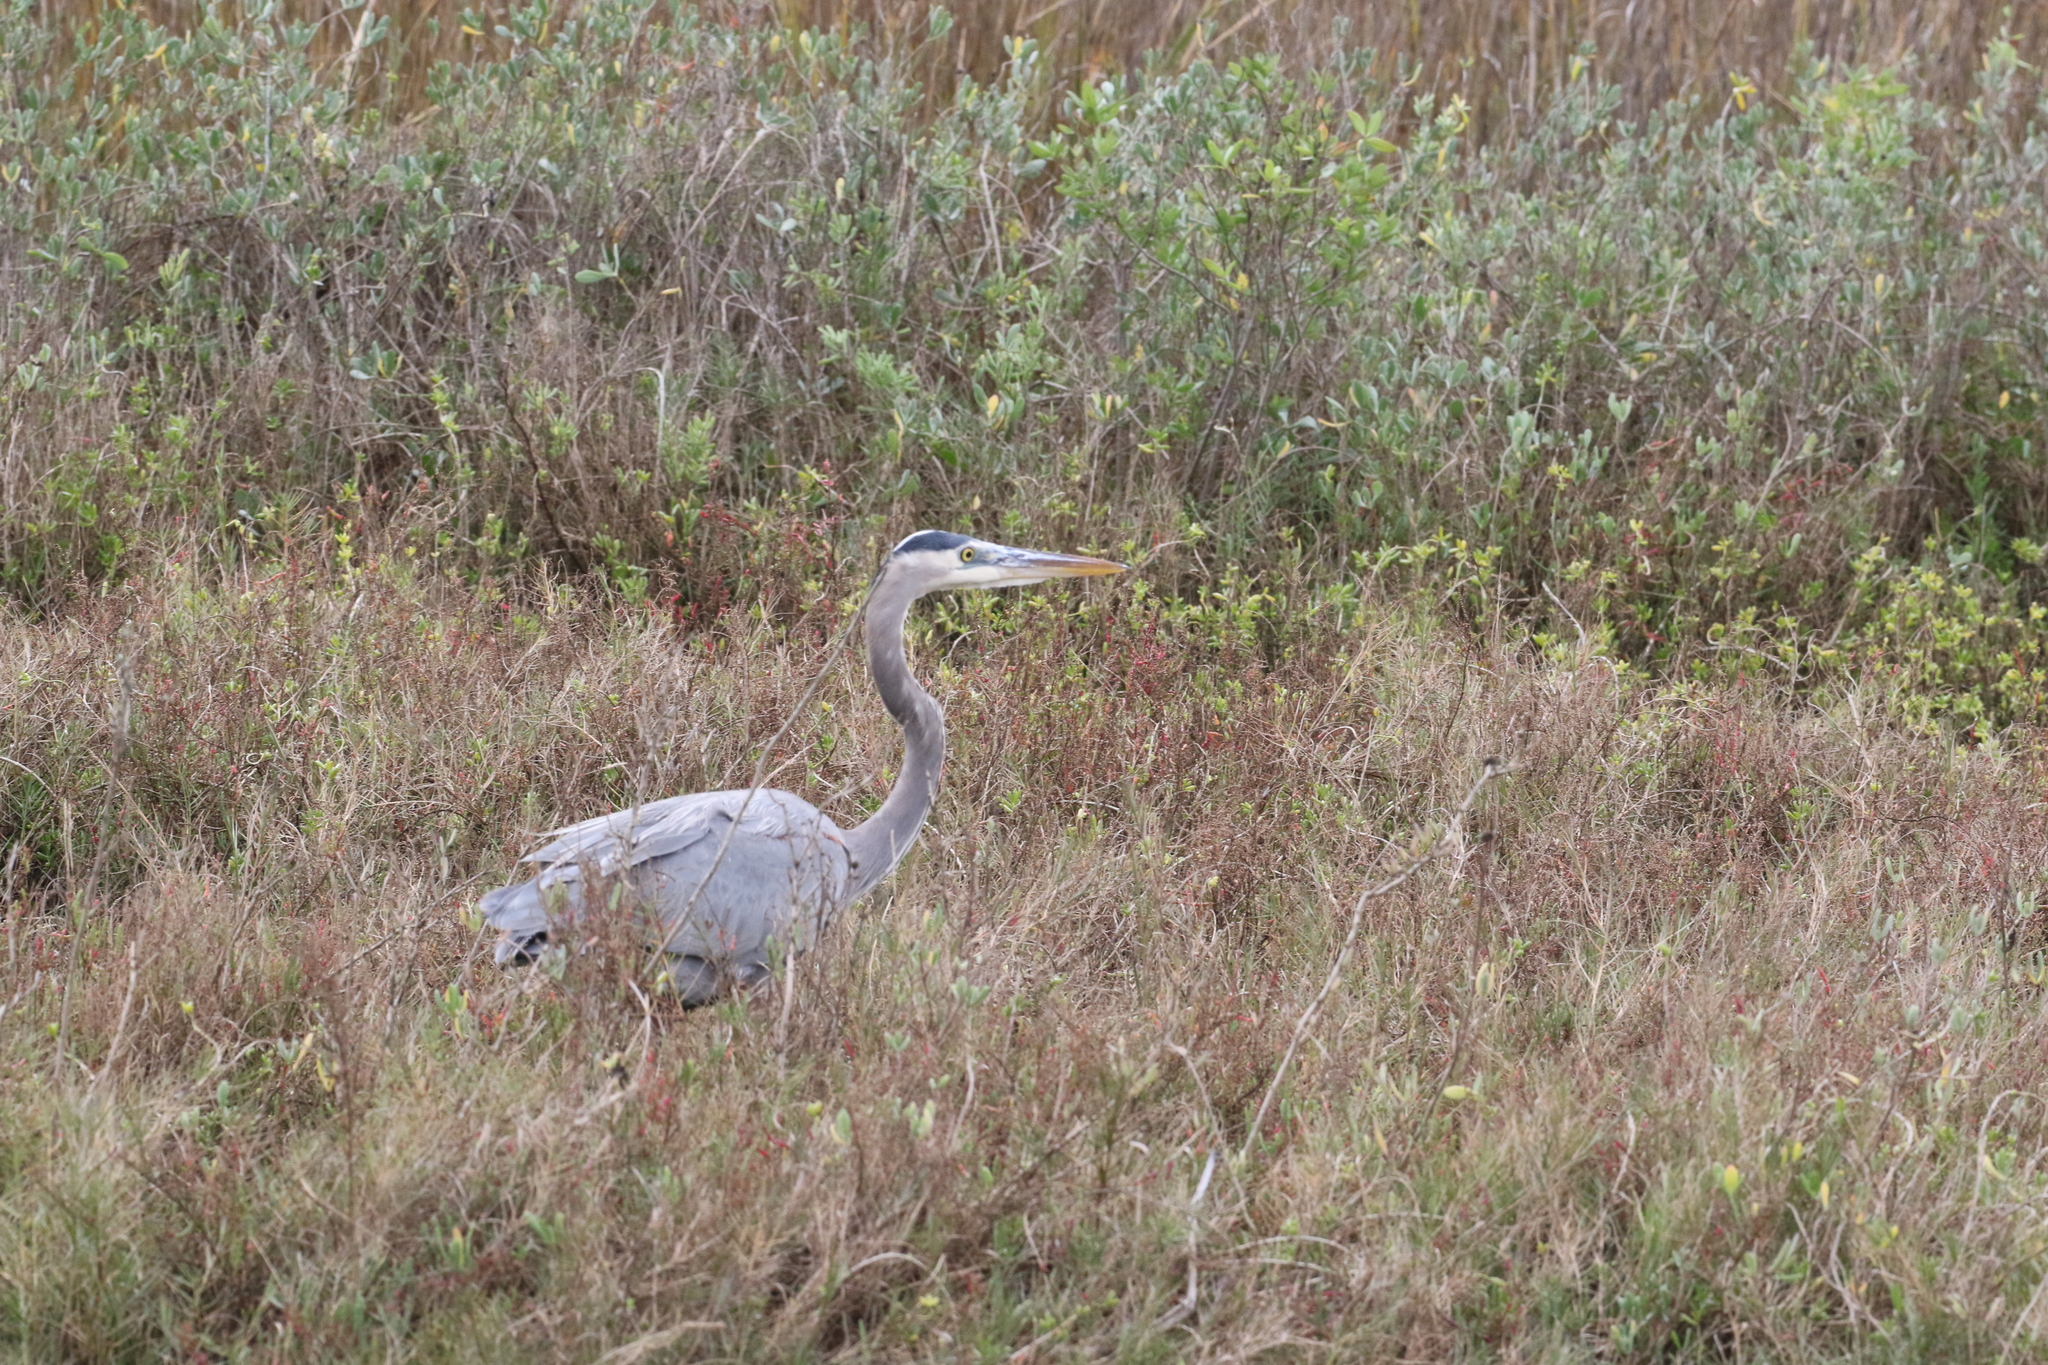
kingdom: Animalia
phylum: Chordata
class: Aves
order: Pelecaniformes
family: Ardeidae
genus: Ardea
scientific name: Ardea herodias
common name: Great blue heron
